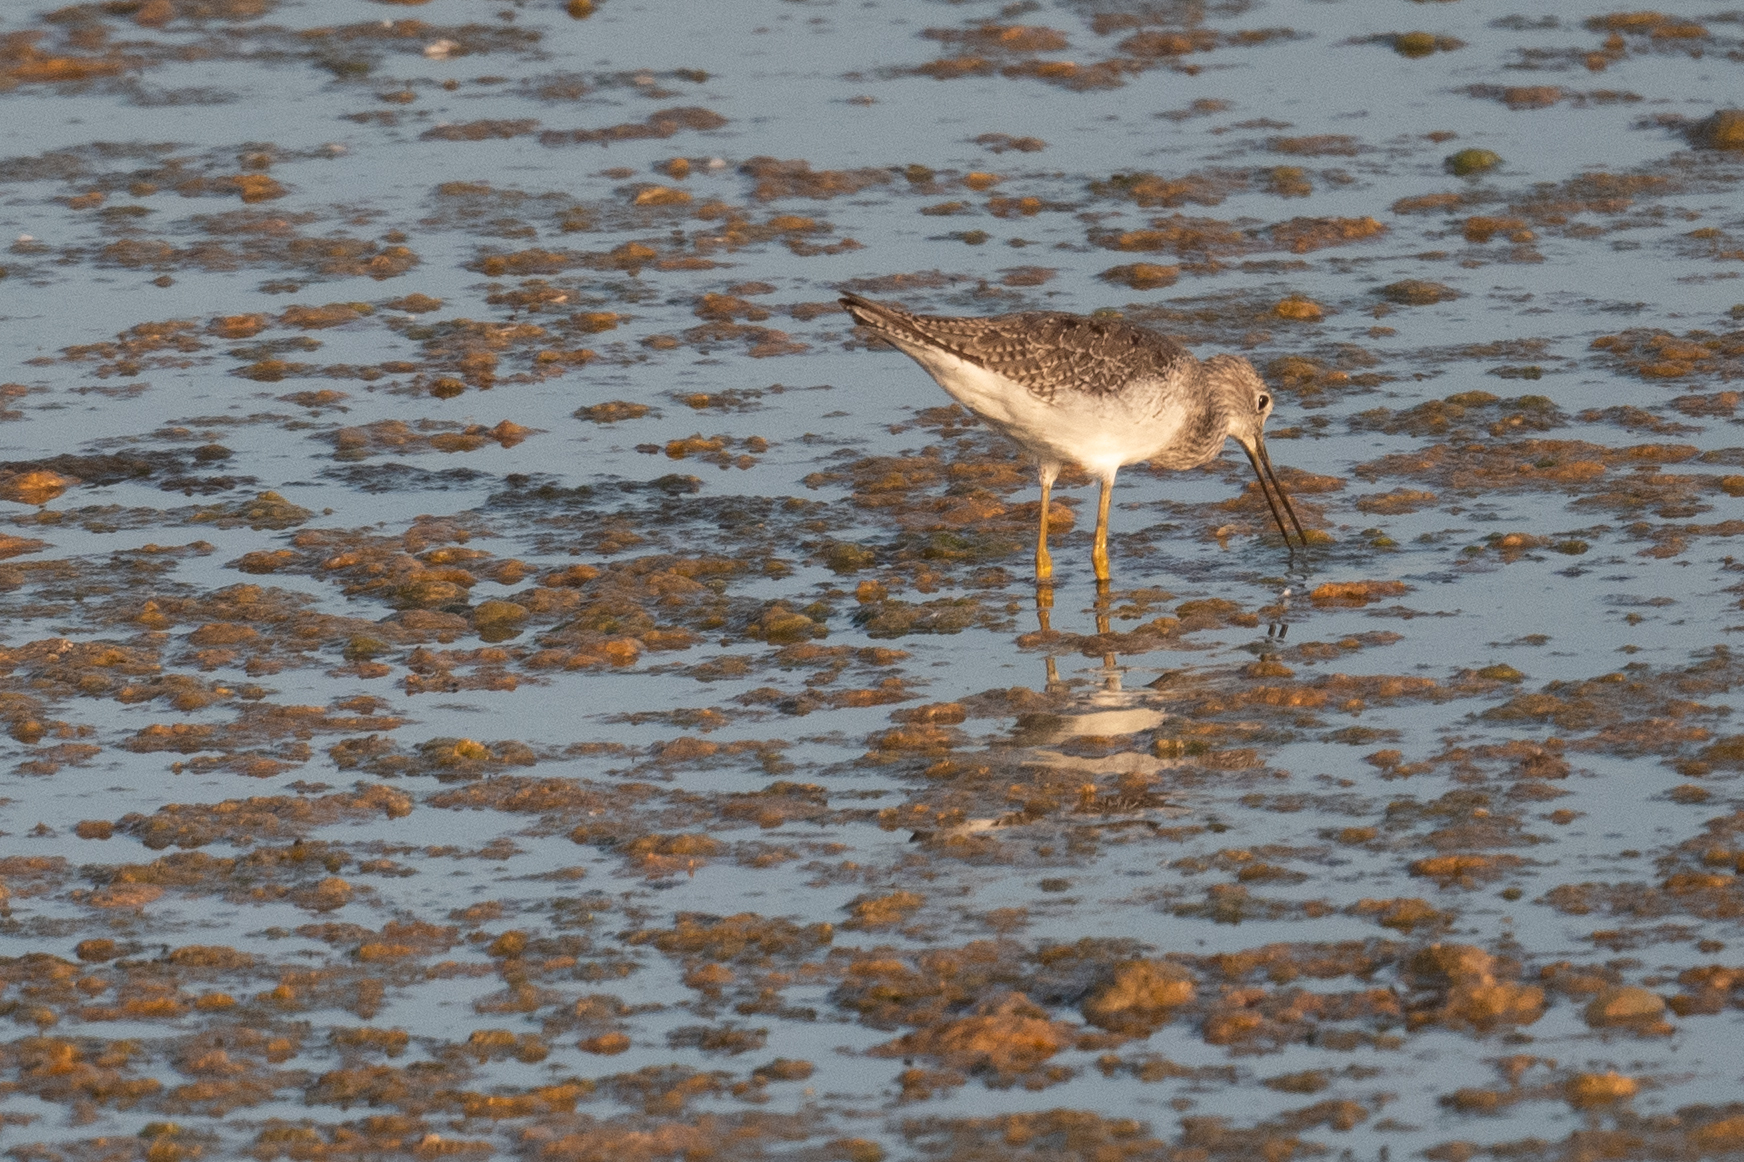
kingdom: Animalia
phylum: Chordata
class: Aves
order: Charadriiformes
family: Scolopacidae
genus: Tringa
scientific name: Tringa melanoleuca
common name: Greater yellowlegs
